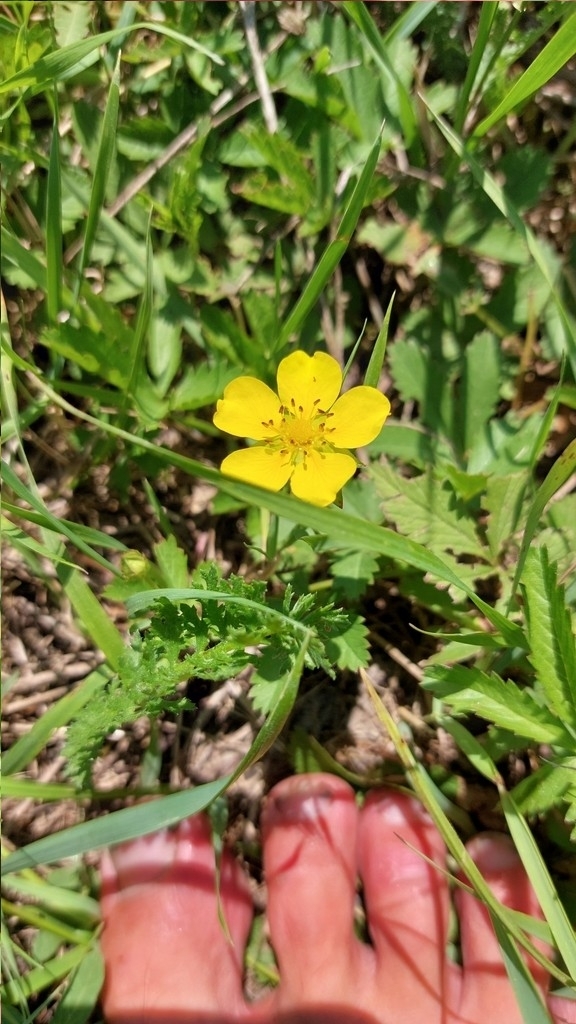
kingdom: Plantae
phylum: Tracheophyta
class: Magnoliopsida
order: Rosales
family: Rosaceae
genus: Potentilla
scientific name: Potentilla reptans
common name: Creeping cinquefoil
